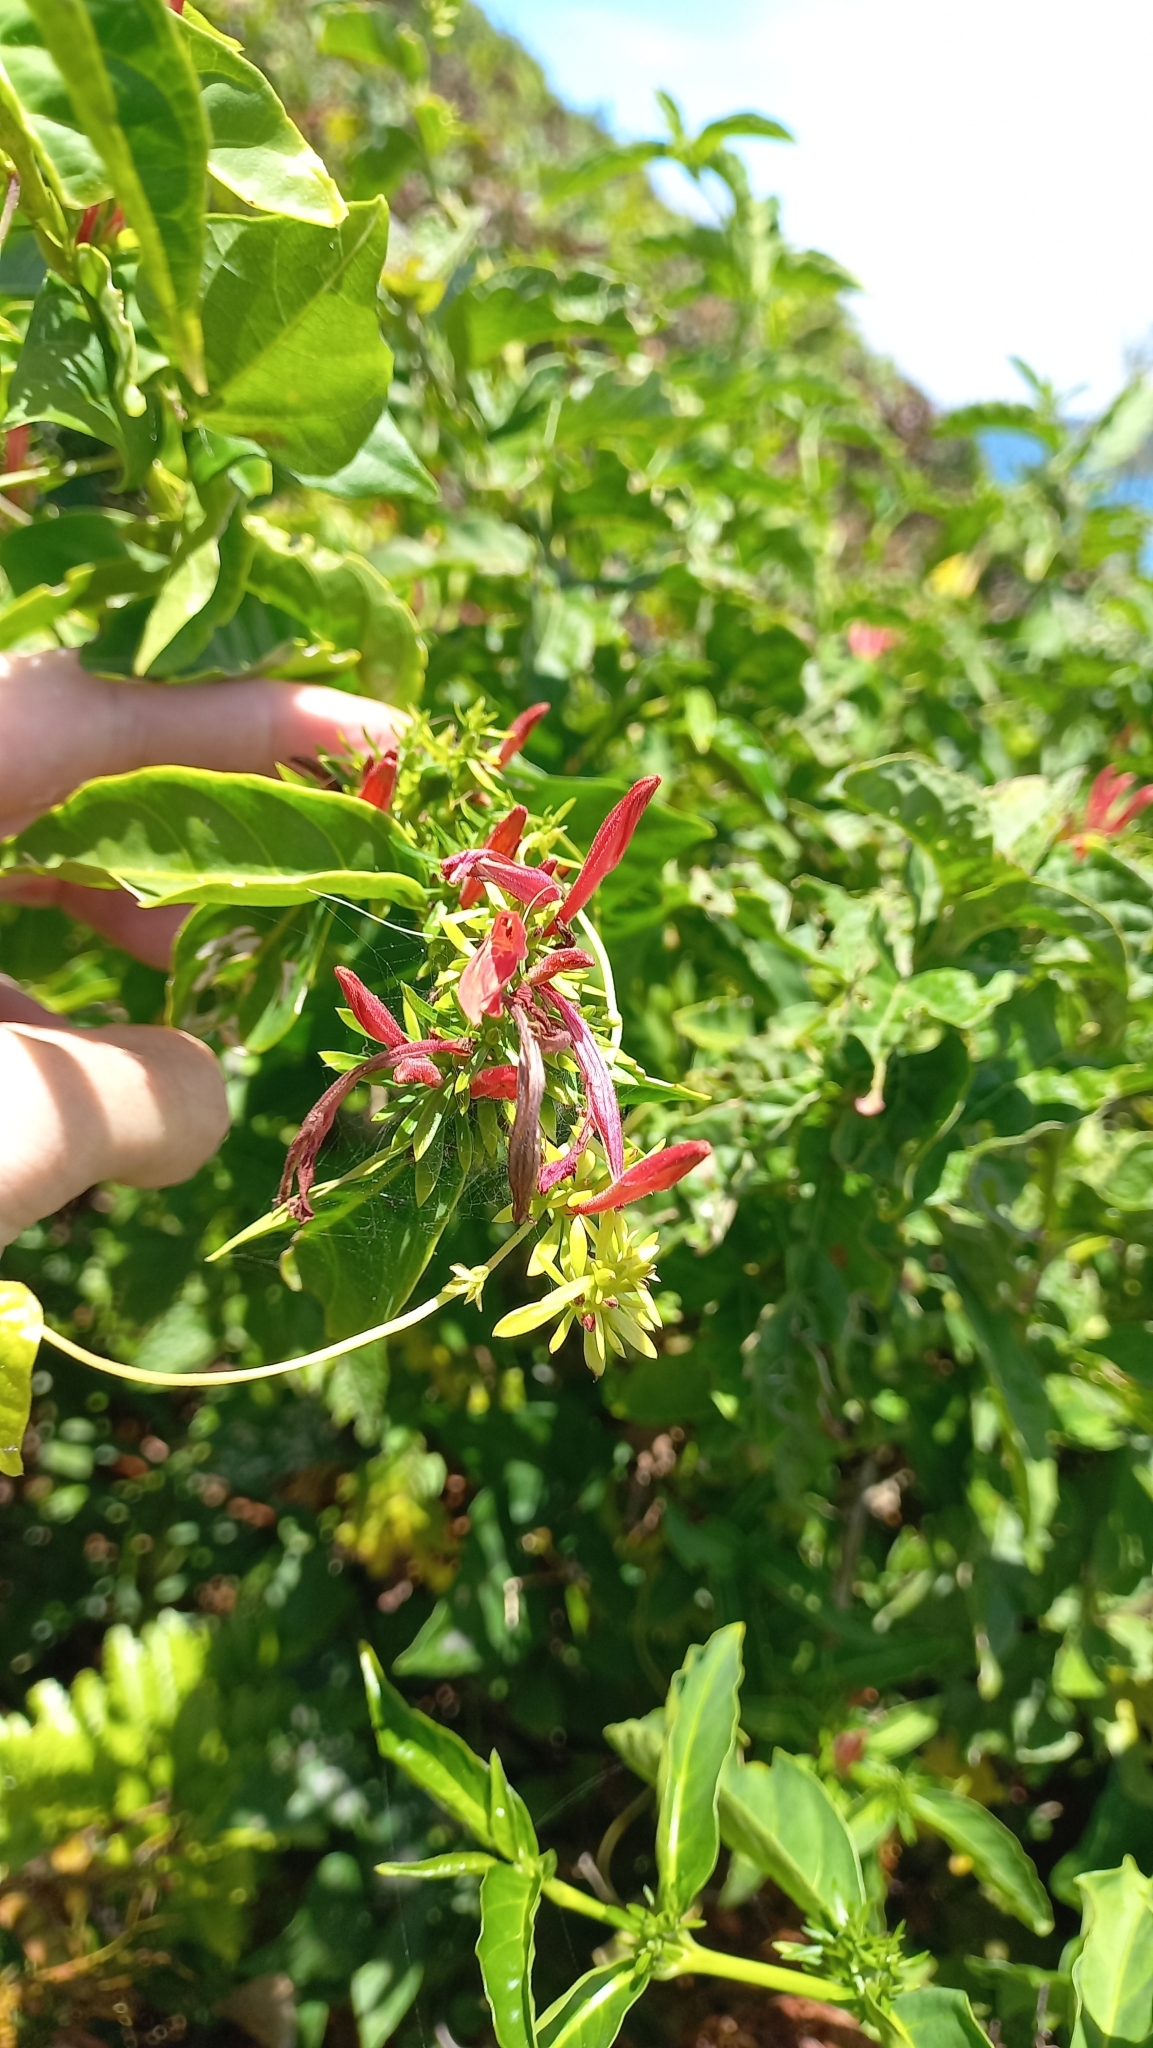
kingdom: Plantae
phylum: Tracheophyta
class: Magnoliopsida
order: Lamiales
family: Acanthaceae
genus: Justicia
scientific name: Justicia brasiliana
